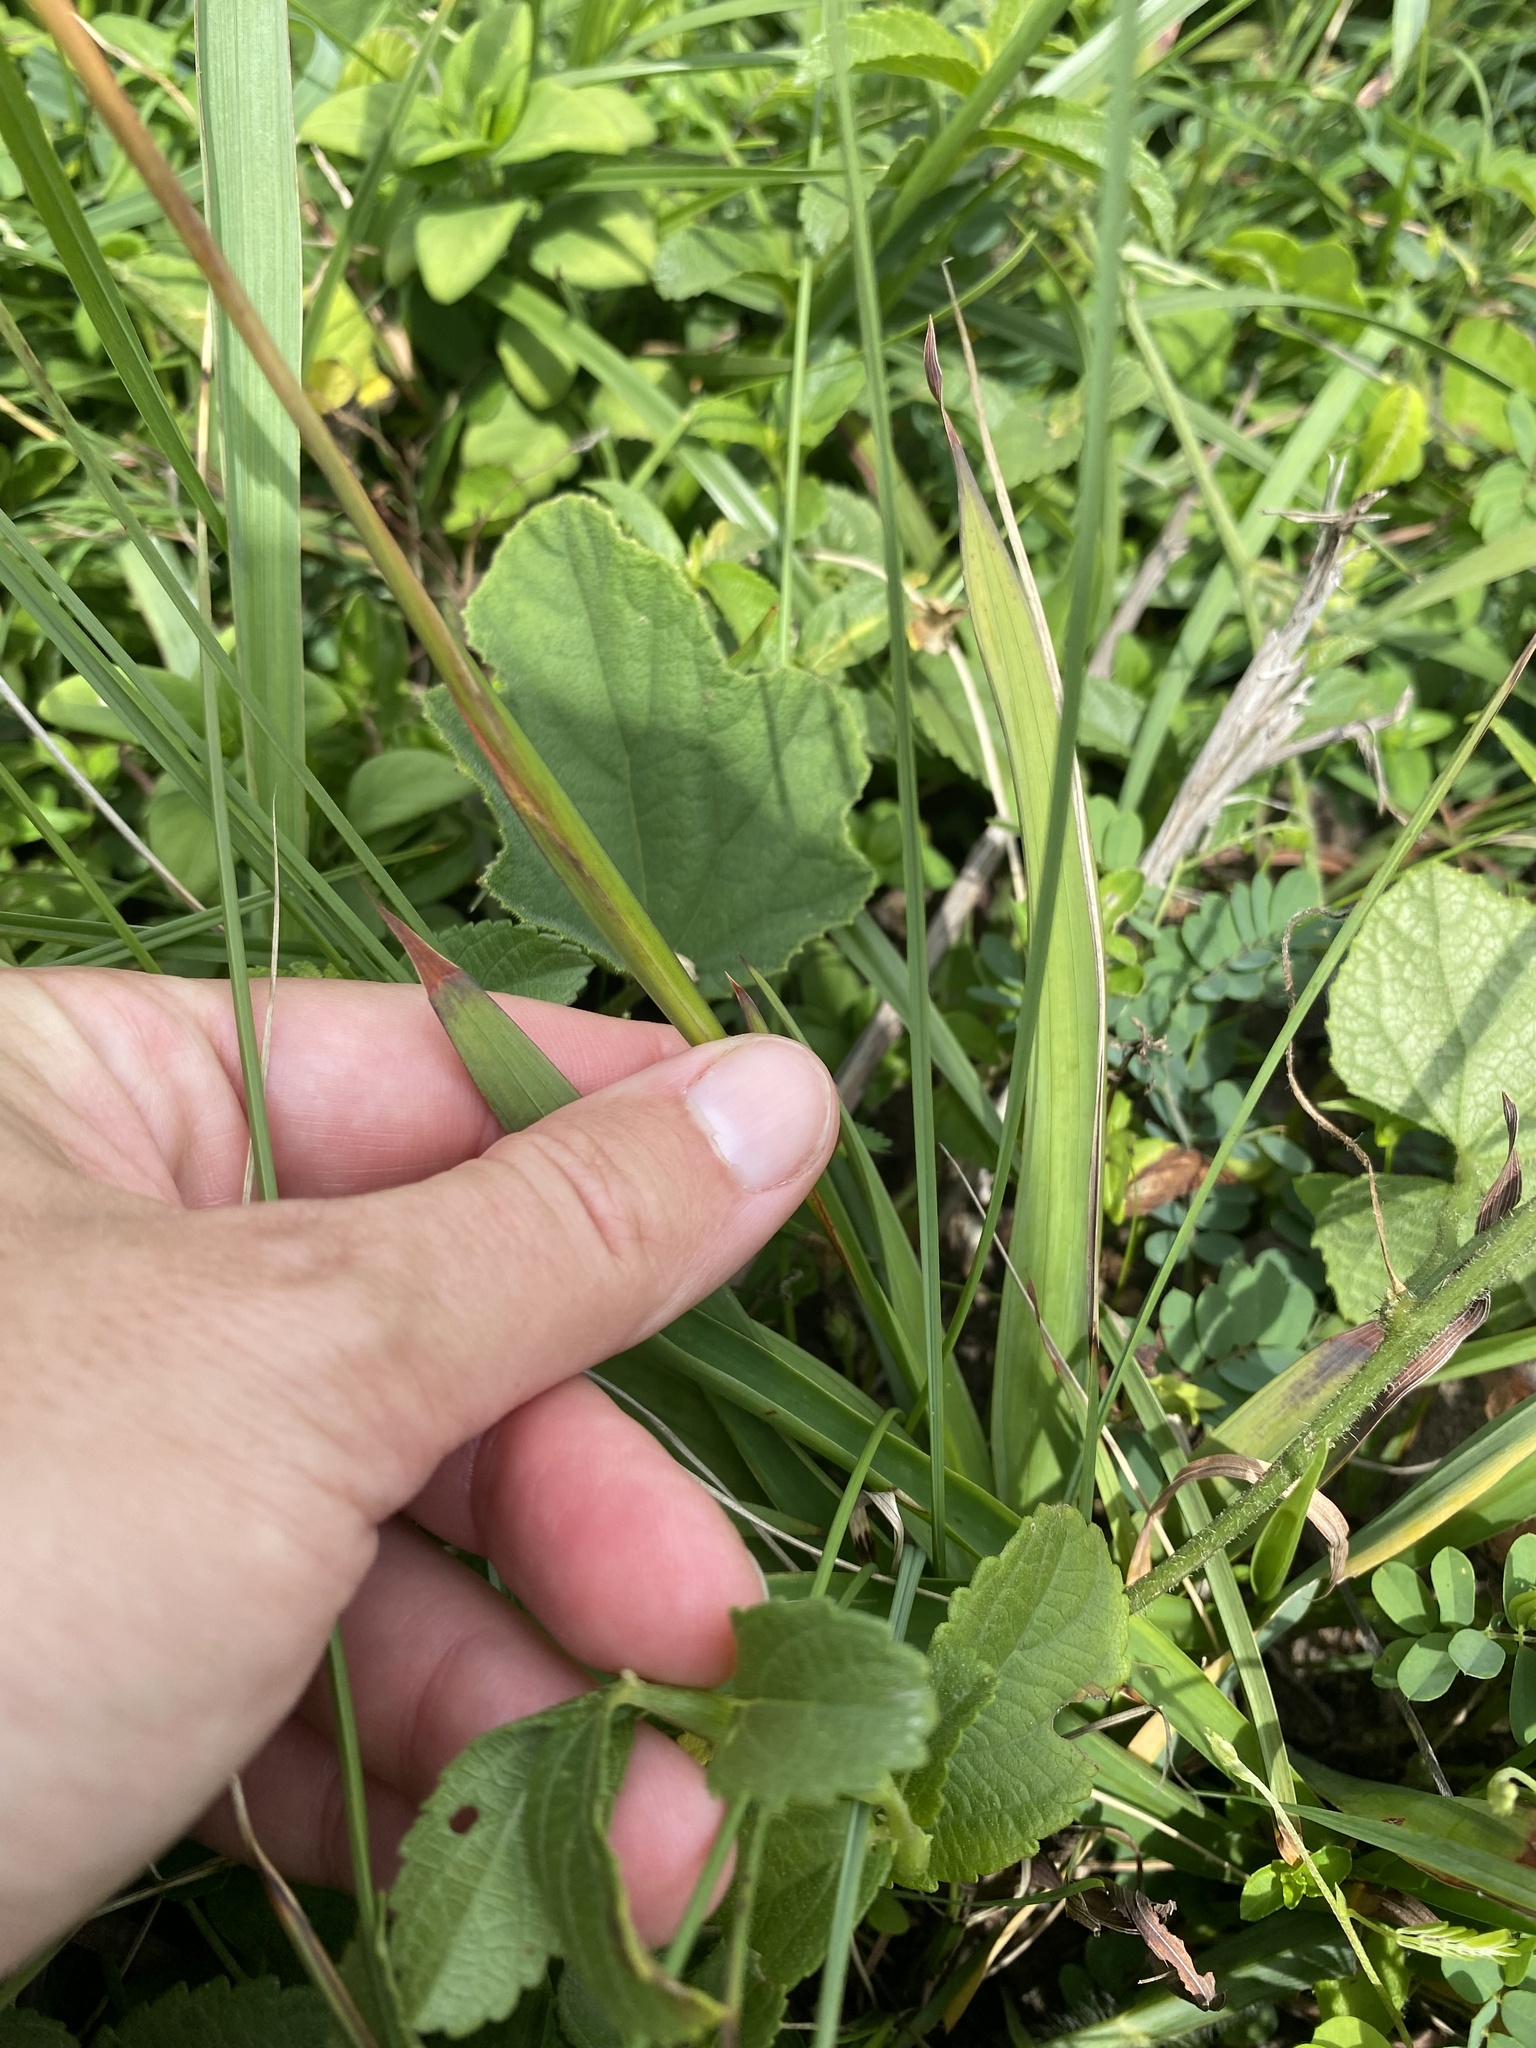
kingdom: Plantae
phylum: Tracheophyta
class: Liliopsida
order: Asparagales
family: Iridaceae
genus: Tritonia
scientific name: Tritonia disticha
